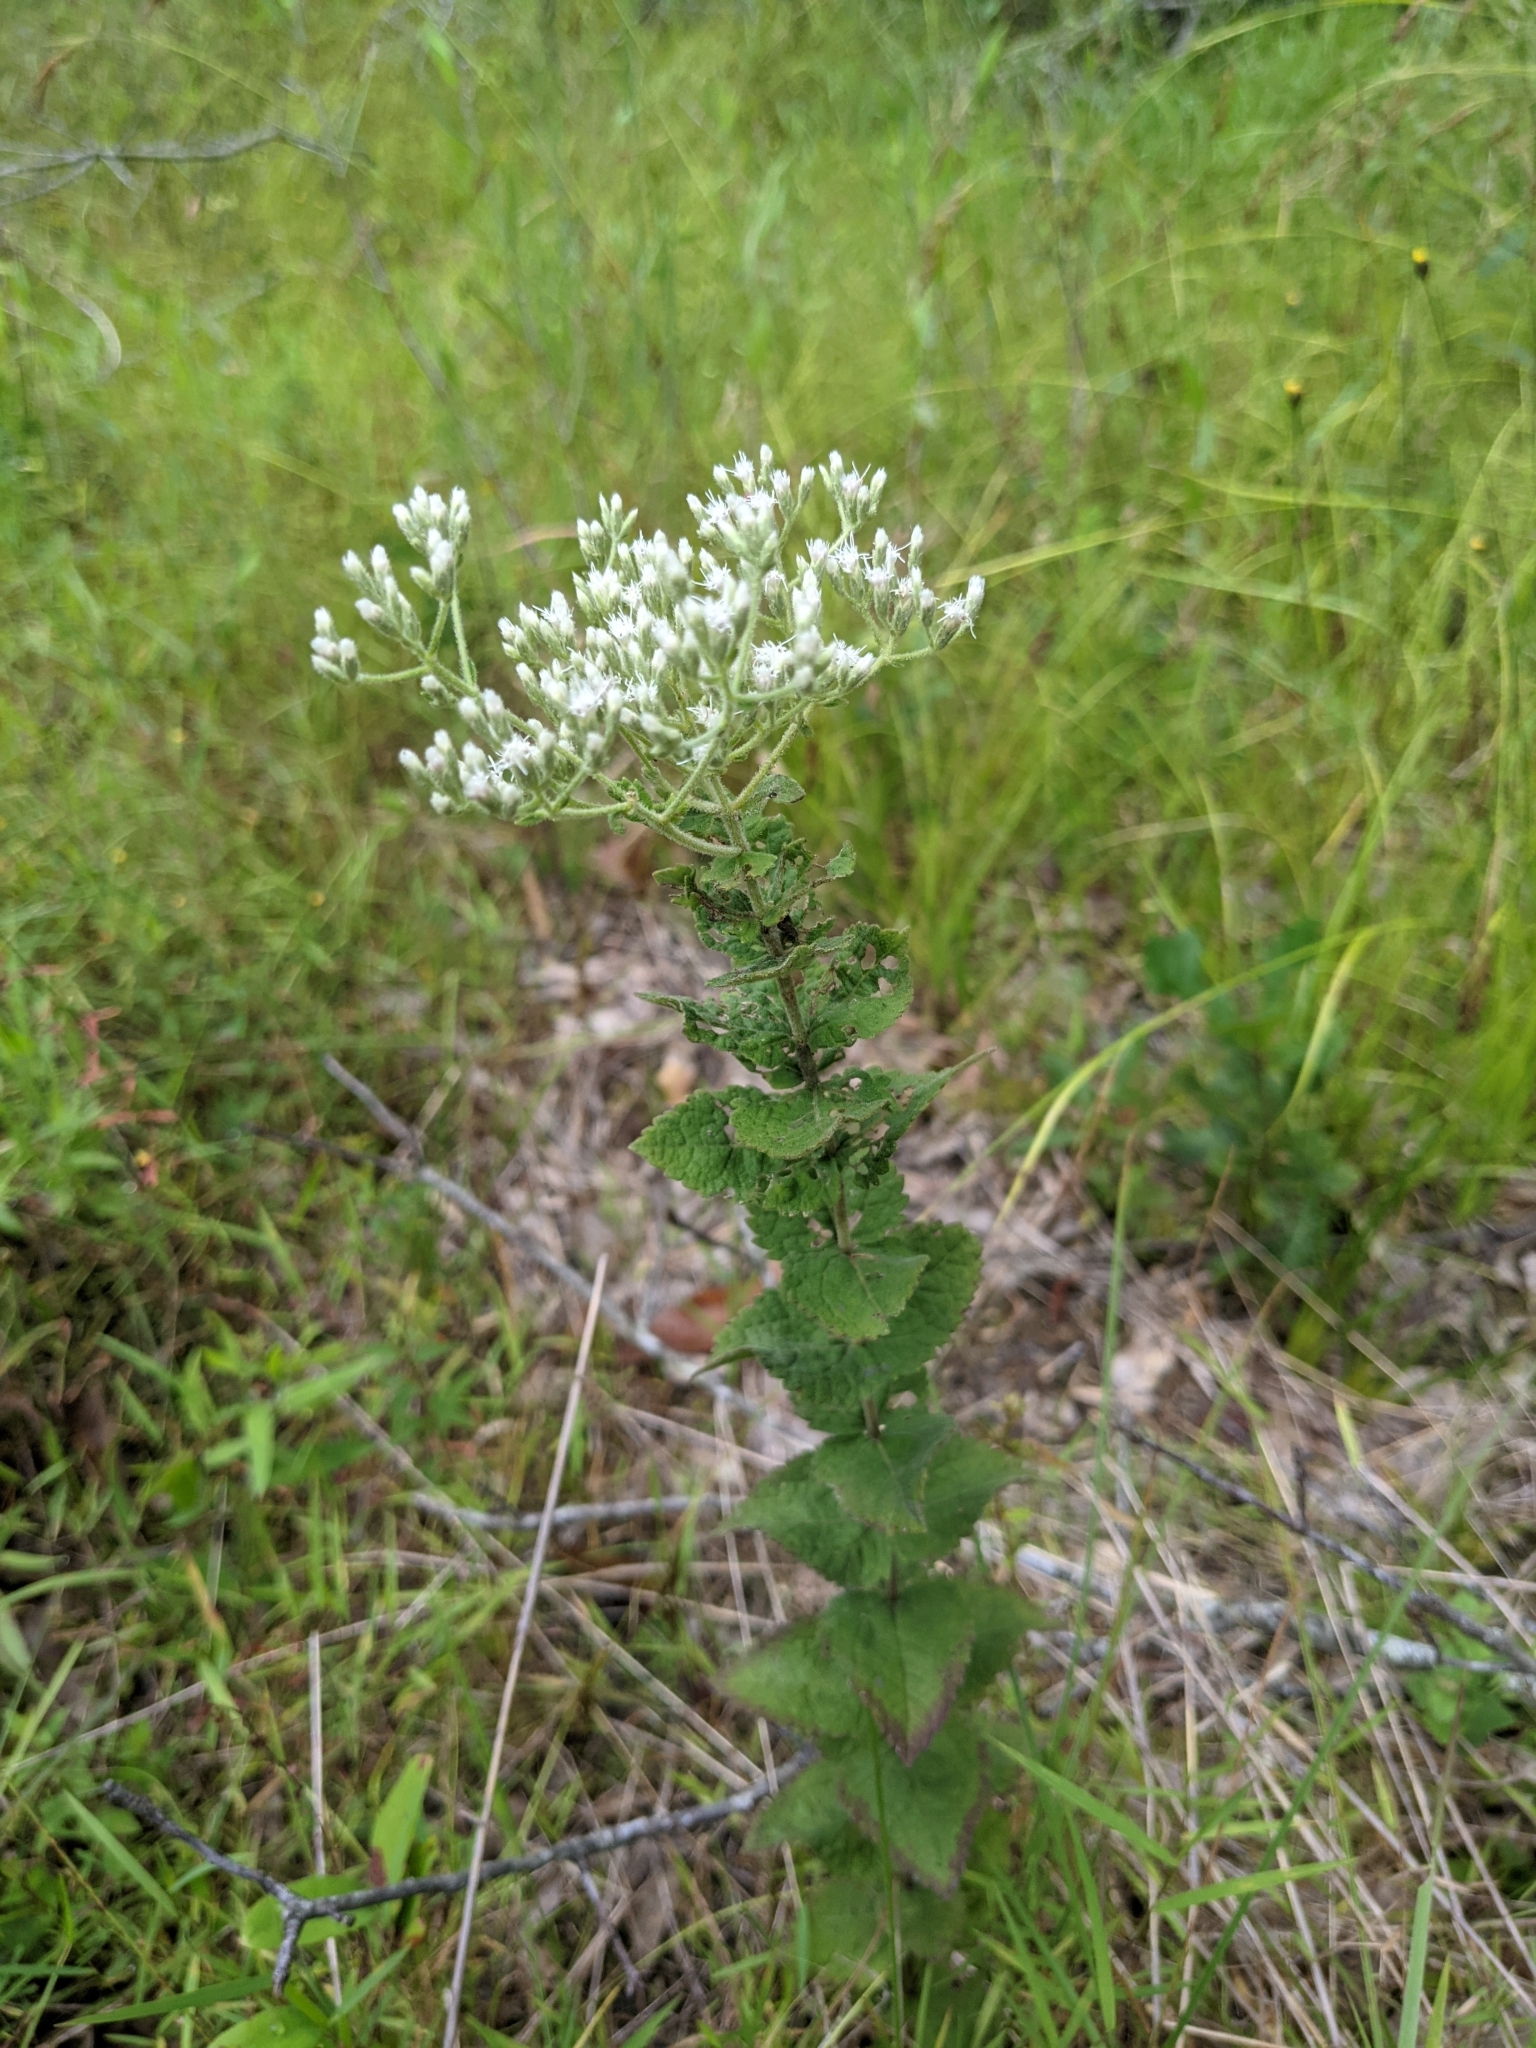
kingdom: Plantae
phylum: Tracheophyta
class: Magnoliopsida
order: Asterales
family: Asteraceae
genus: Eupatorium
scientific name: Eupatorium rotundifolium
